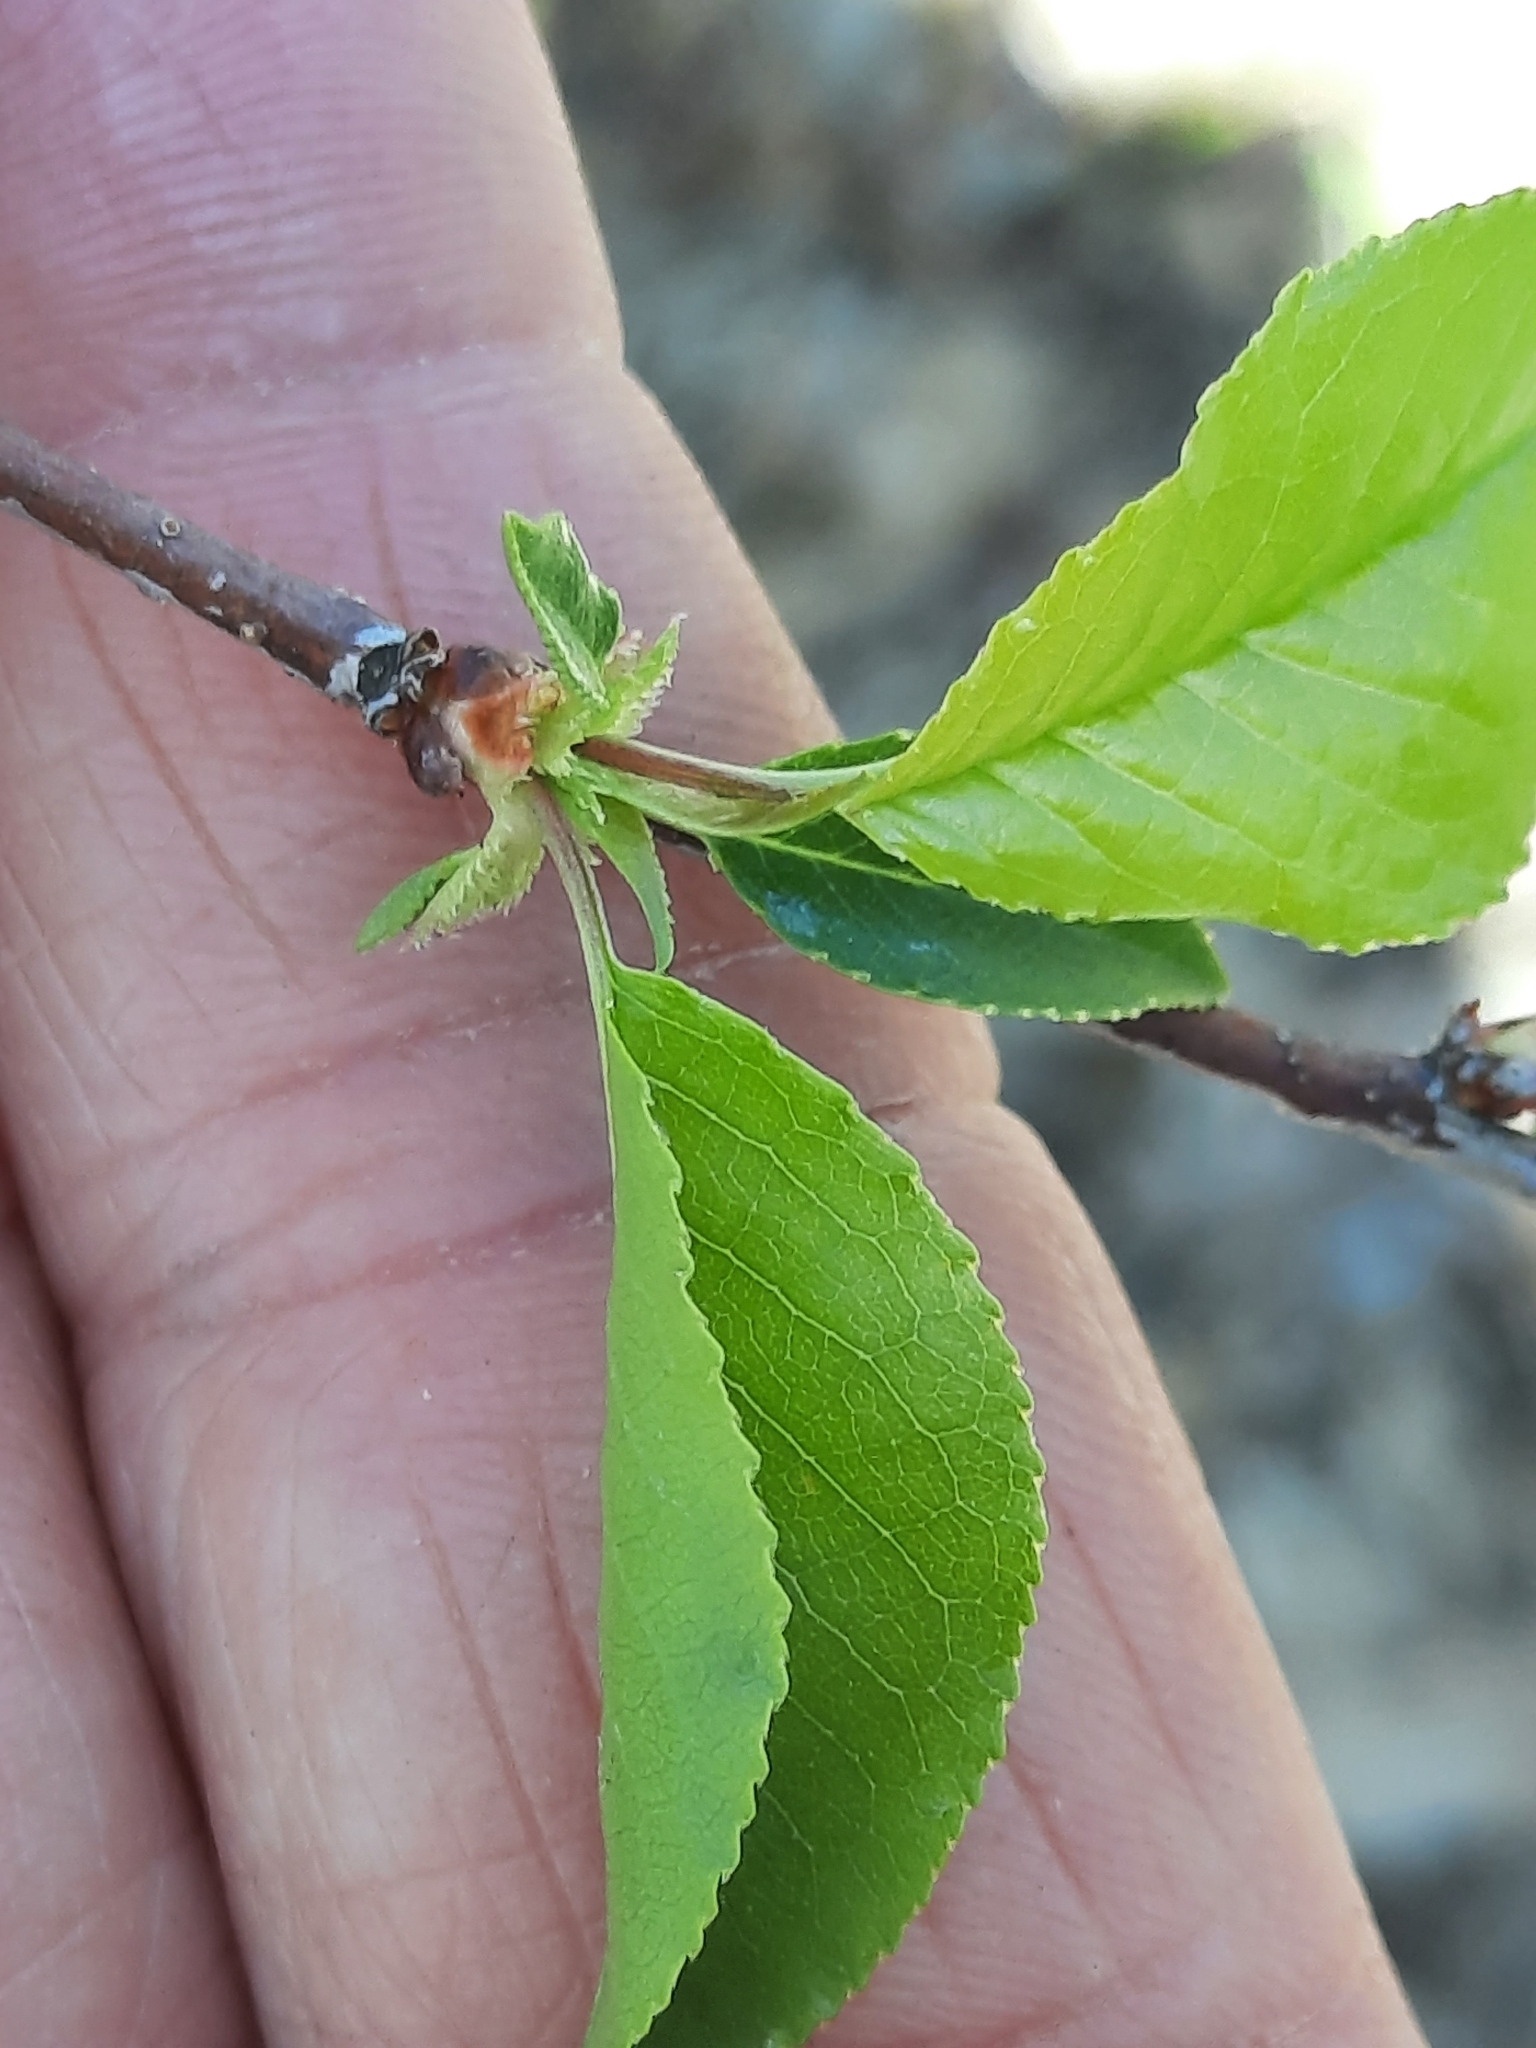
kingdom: Plantae
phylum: Tracheophyta
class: Magnoliopsida
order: Rosales
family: Rosaceae
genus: Prunus
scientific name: Prunus pensylvanica
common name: Pin cherry
